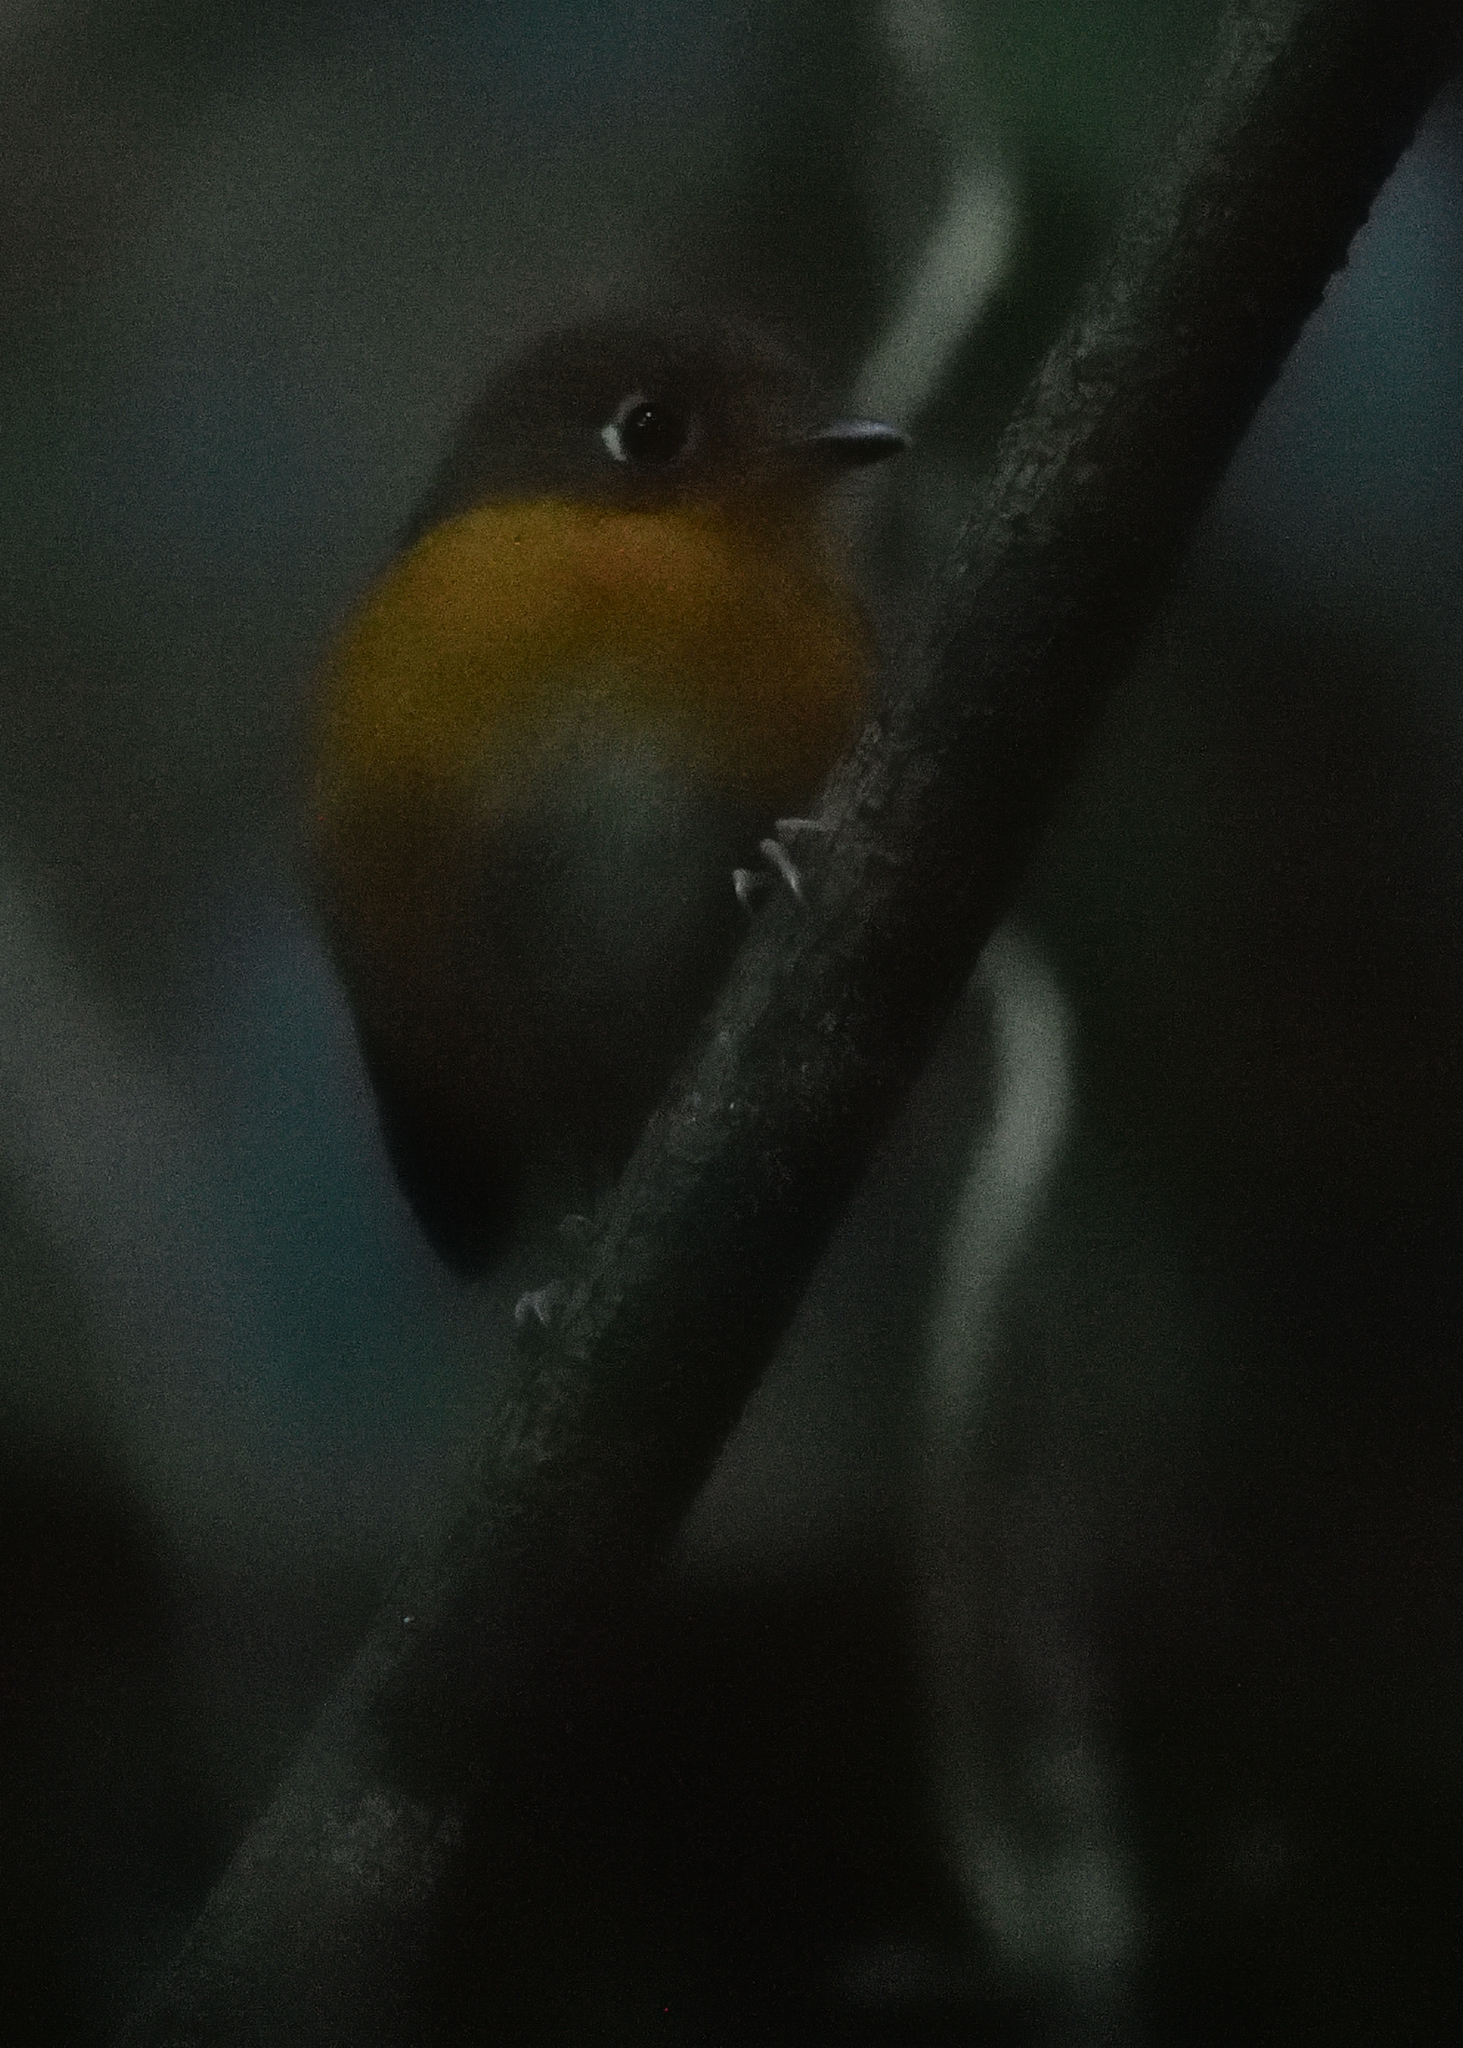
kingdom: Animalia
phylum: Chordata
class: Aves
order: Passeriformes
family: Grallariidae
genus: Grallaricula
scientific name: Grallaricula ferrugineipectus
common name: Rusty-breasted antpitta
